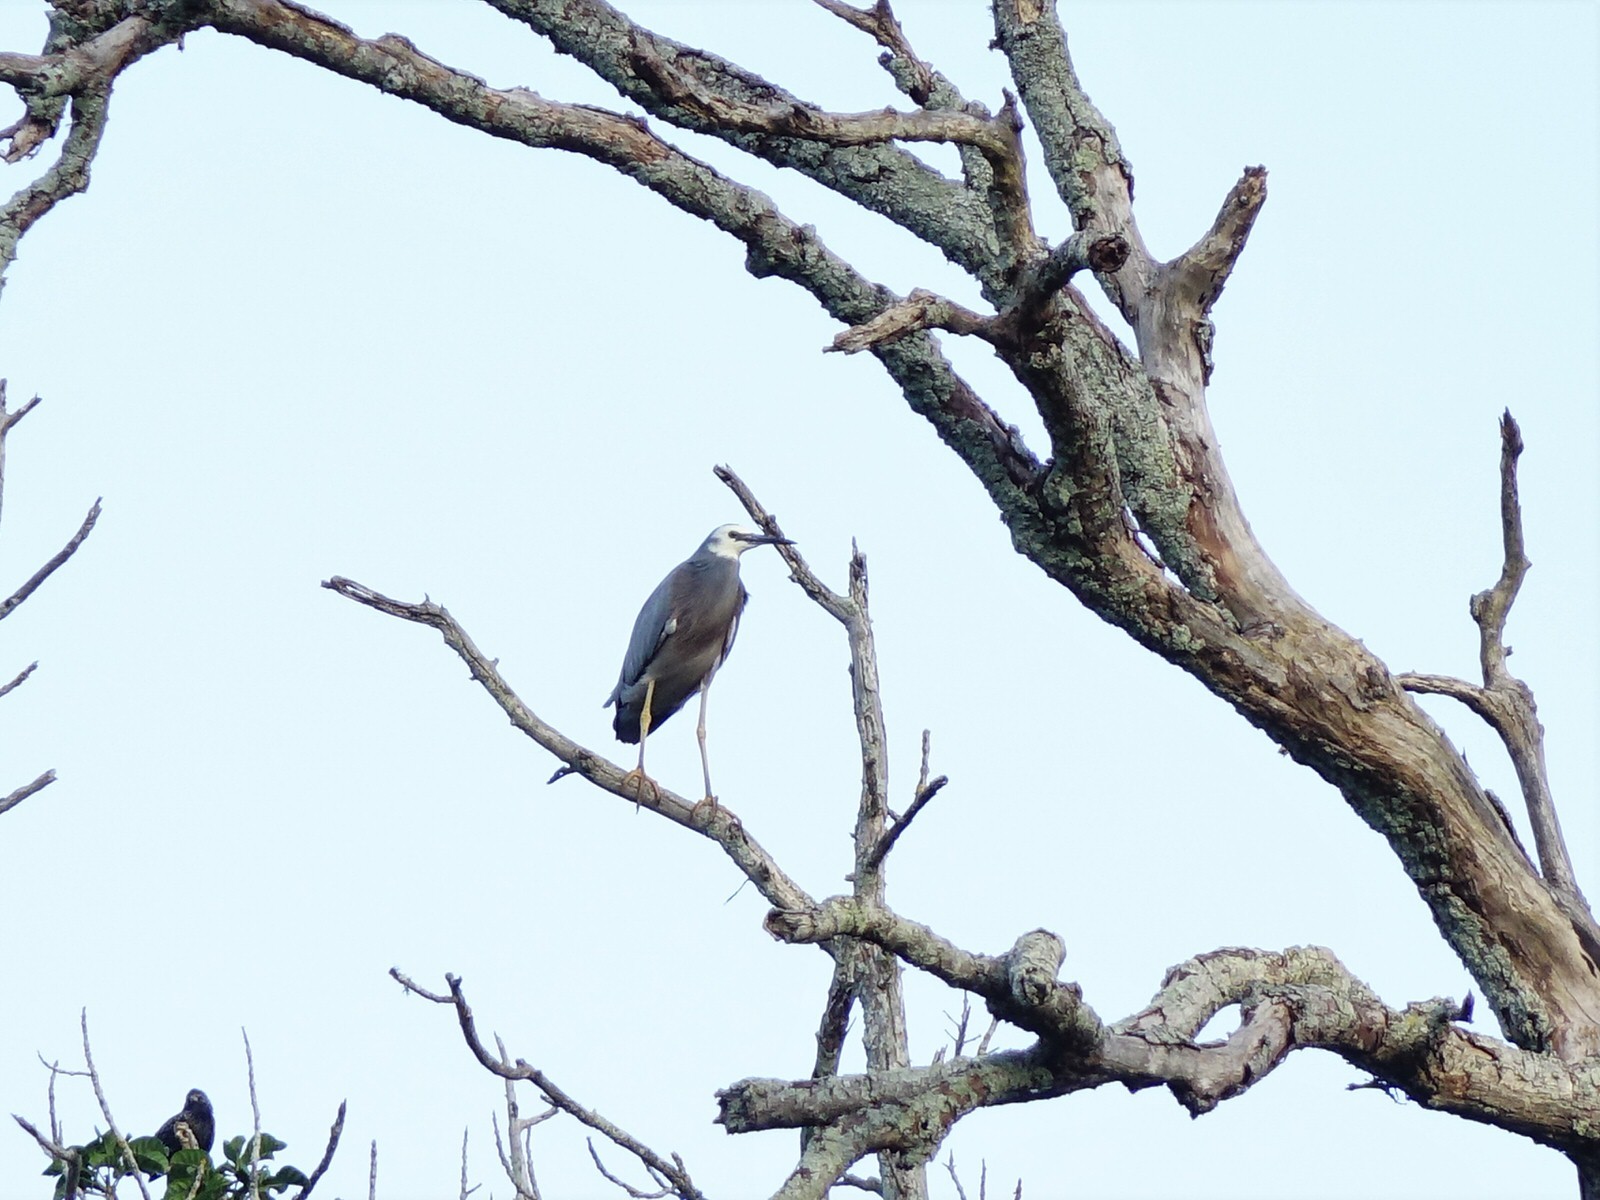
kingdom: Animalia
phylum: Chordata
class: Aves
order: Pelecaniformes
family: Ardeidae
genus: Egretta
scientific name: Egretta novaehollandiae
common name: White-faced heron
